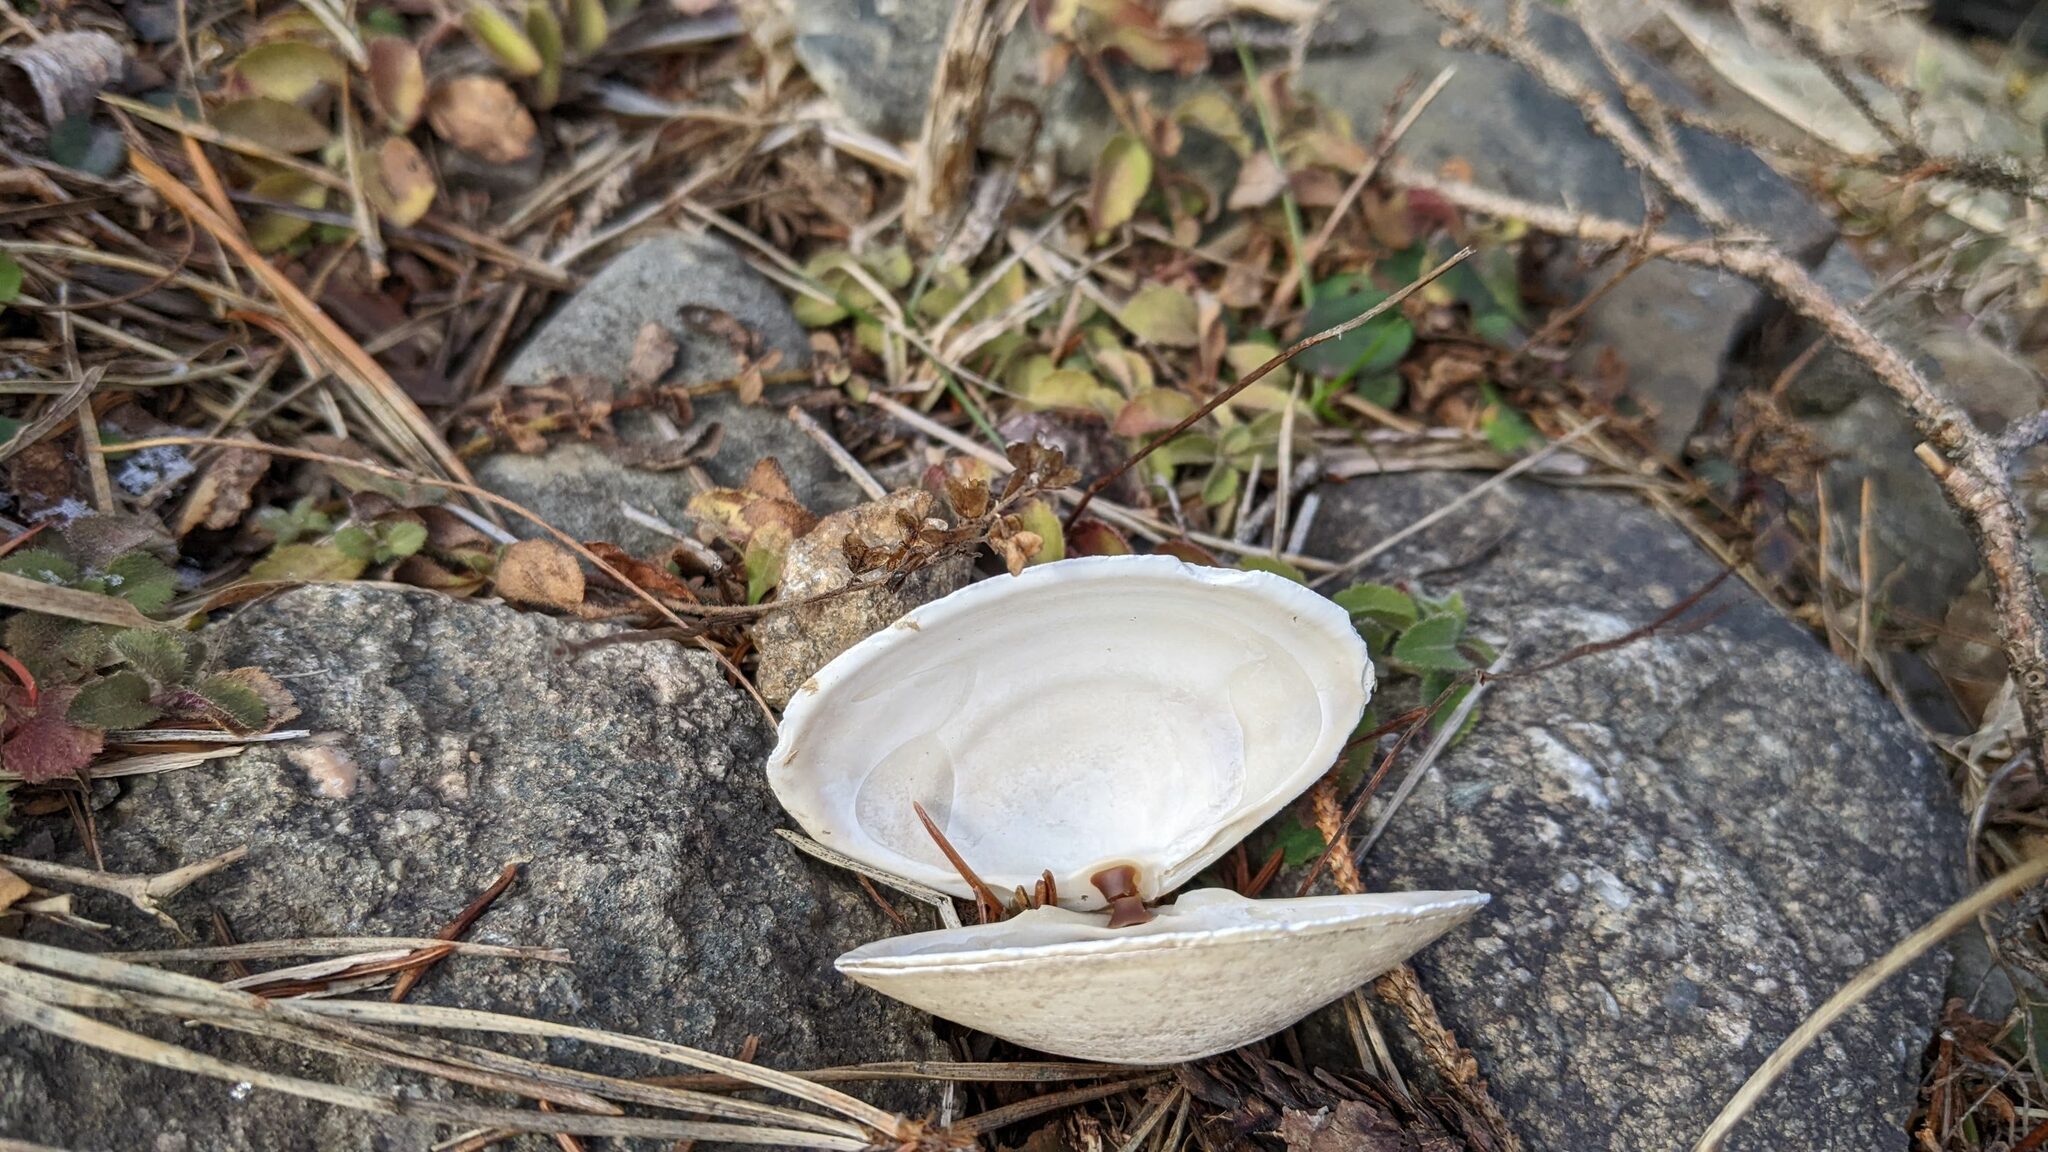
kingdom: Animalia
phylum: Mollusca
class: Bivalvia
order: Venerida
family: Mactridae
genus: Spisula
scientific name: Spisula solidissima
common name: Atlantic surf clam
